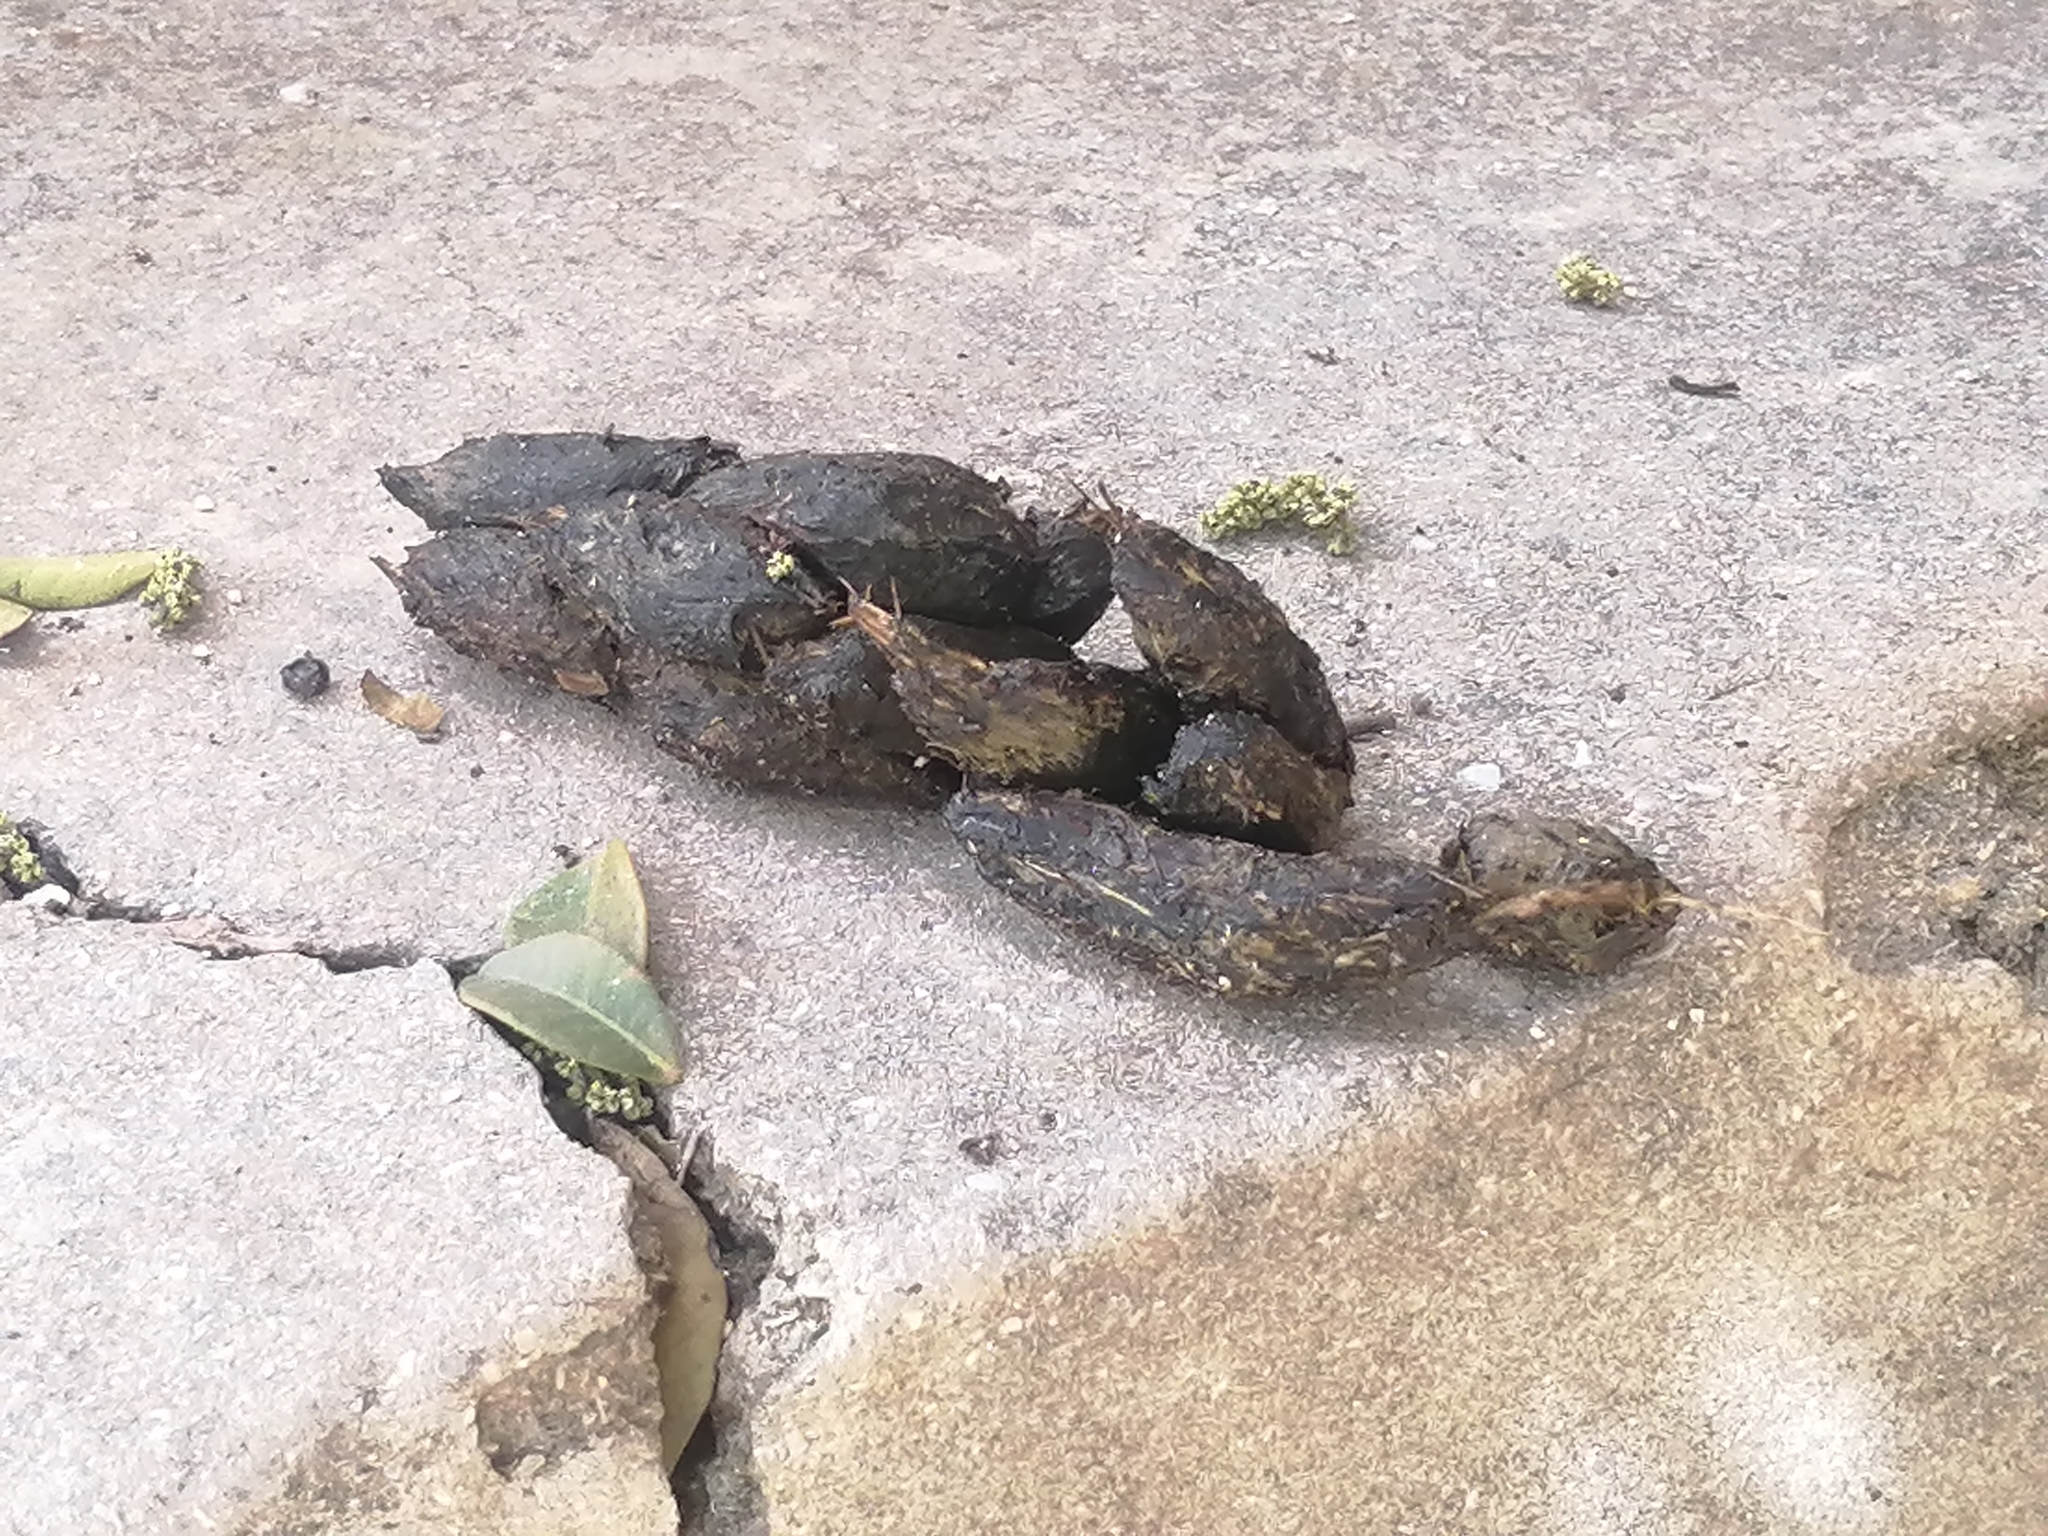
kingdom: Animalia
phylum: Chordata
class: Mammalia
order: Rodentia
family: Hystricidae
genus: Hystrix
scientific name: Hystrix indica
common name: Indian crested porcupine
